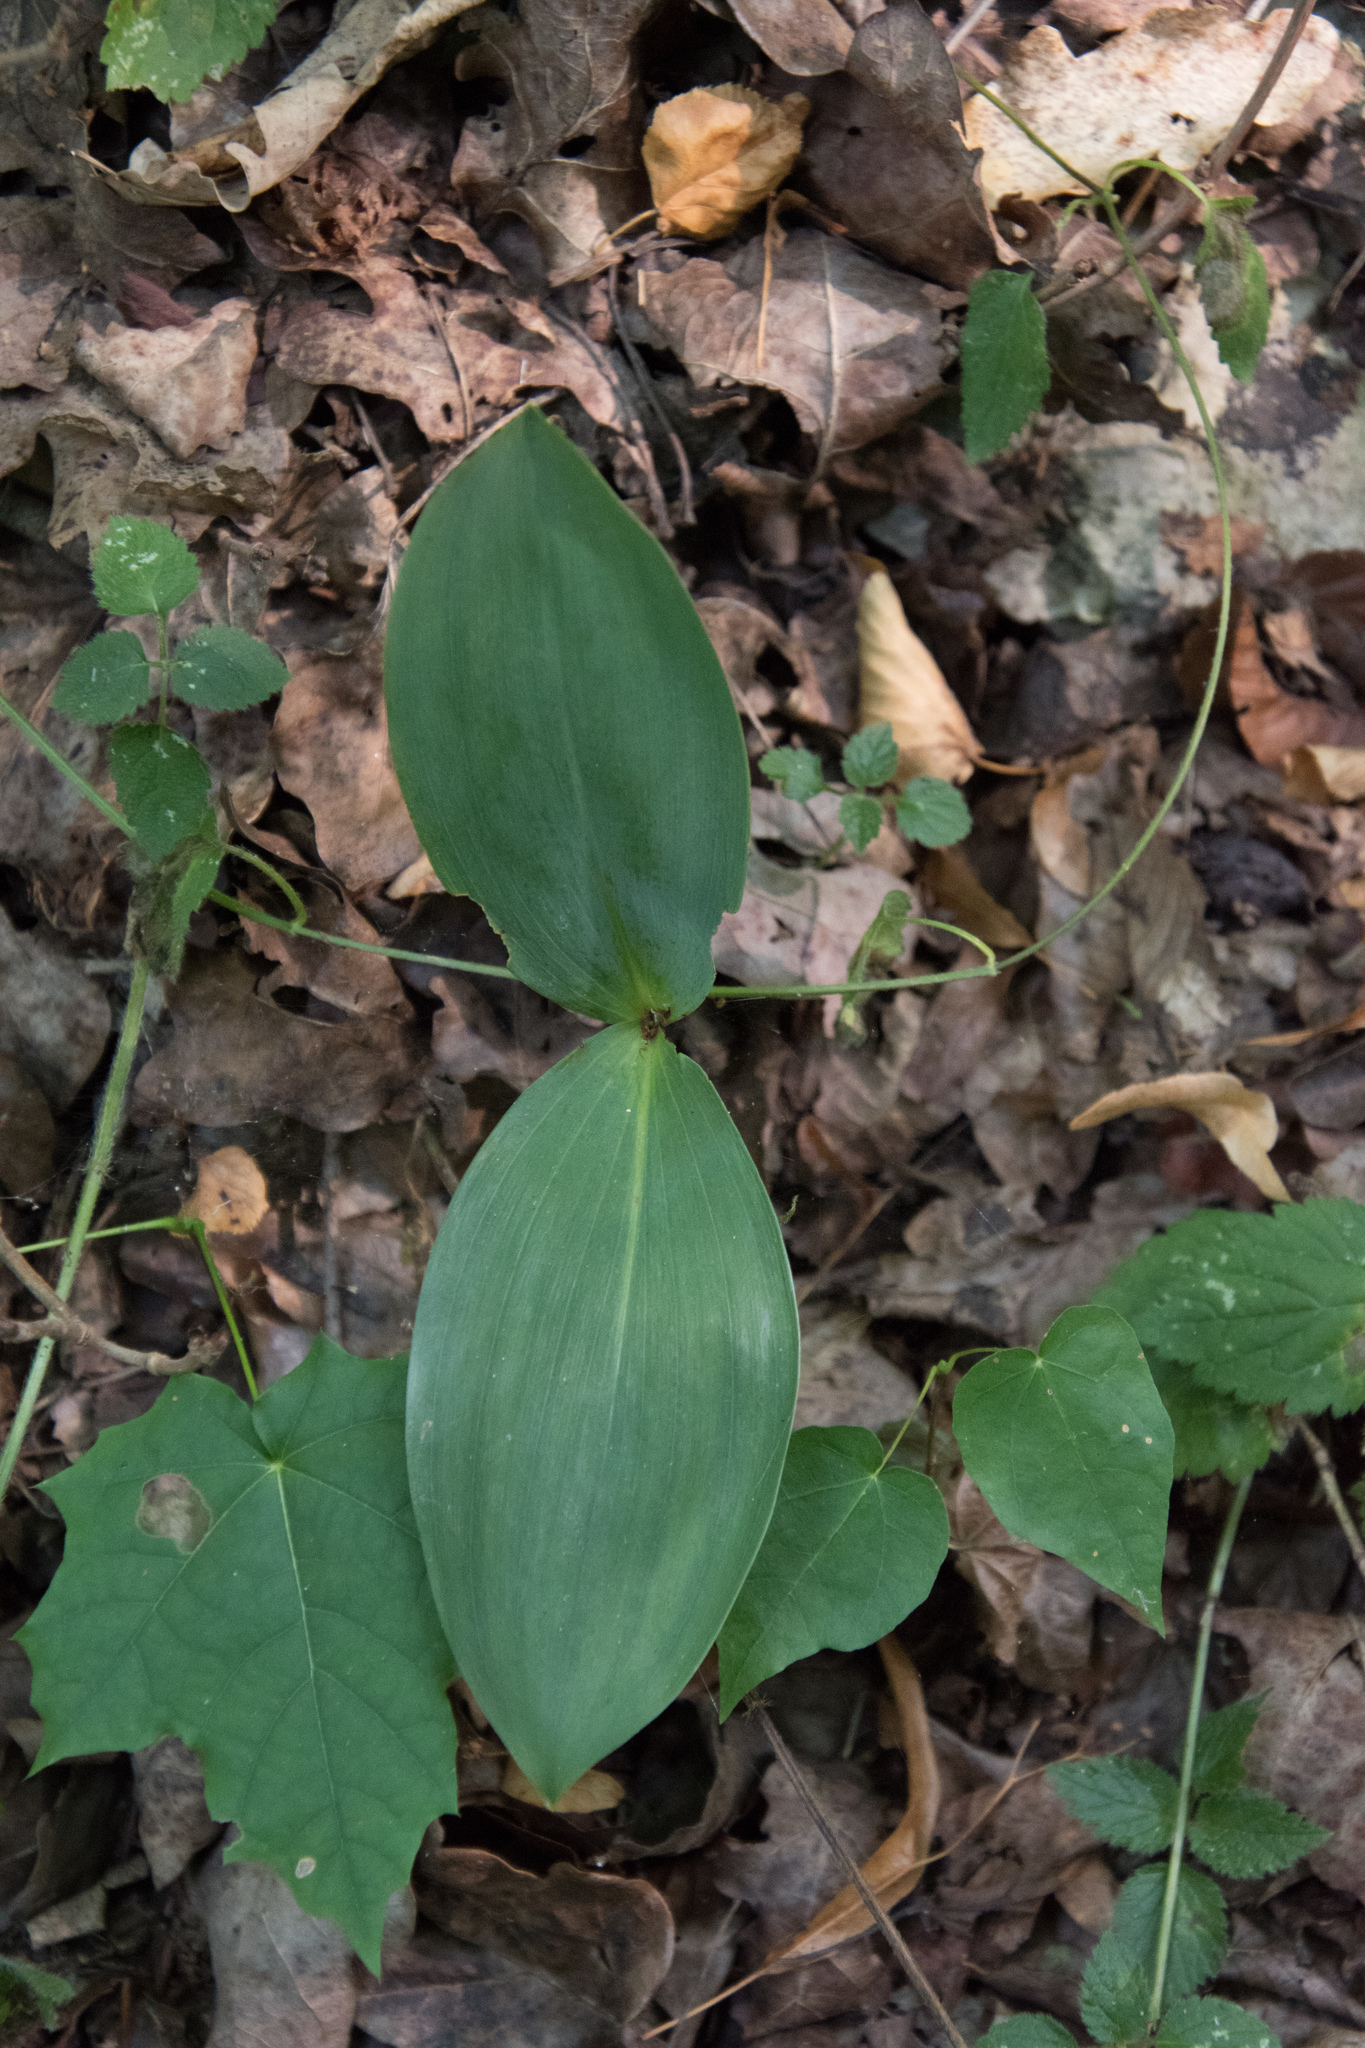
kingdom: Plantae
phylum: Tracheophyta
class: Liliopsida
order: Asparagales
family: Asparagaceae
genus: Convallaria
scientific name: Convallaria majalis
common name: Lily-of-the-valley
